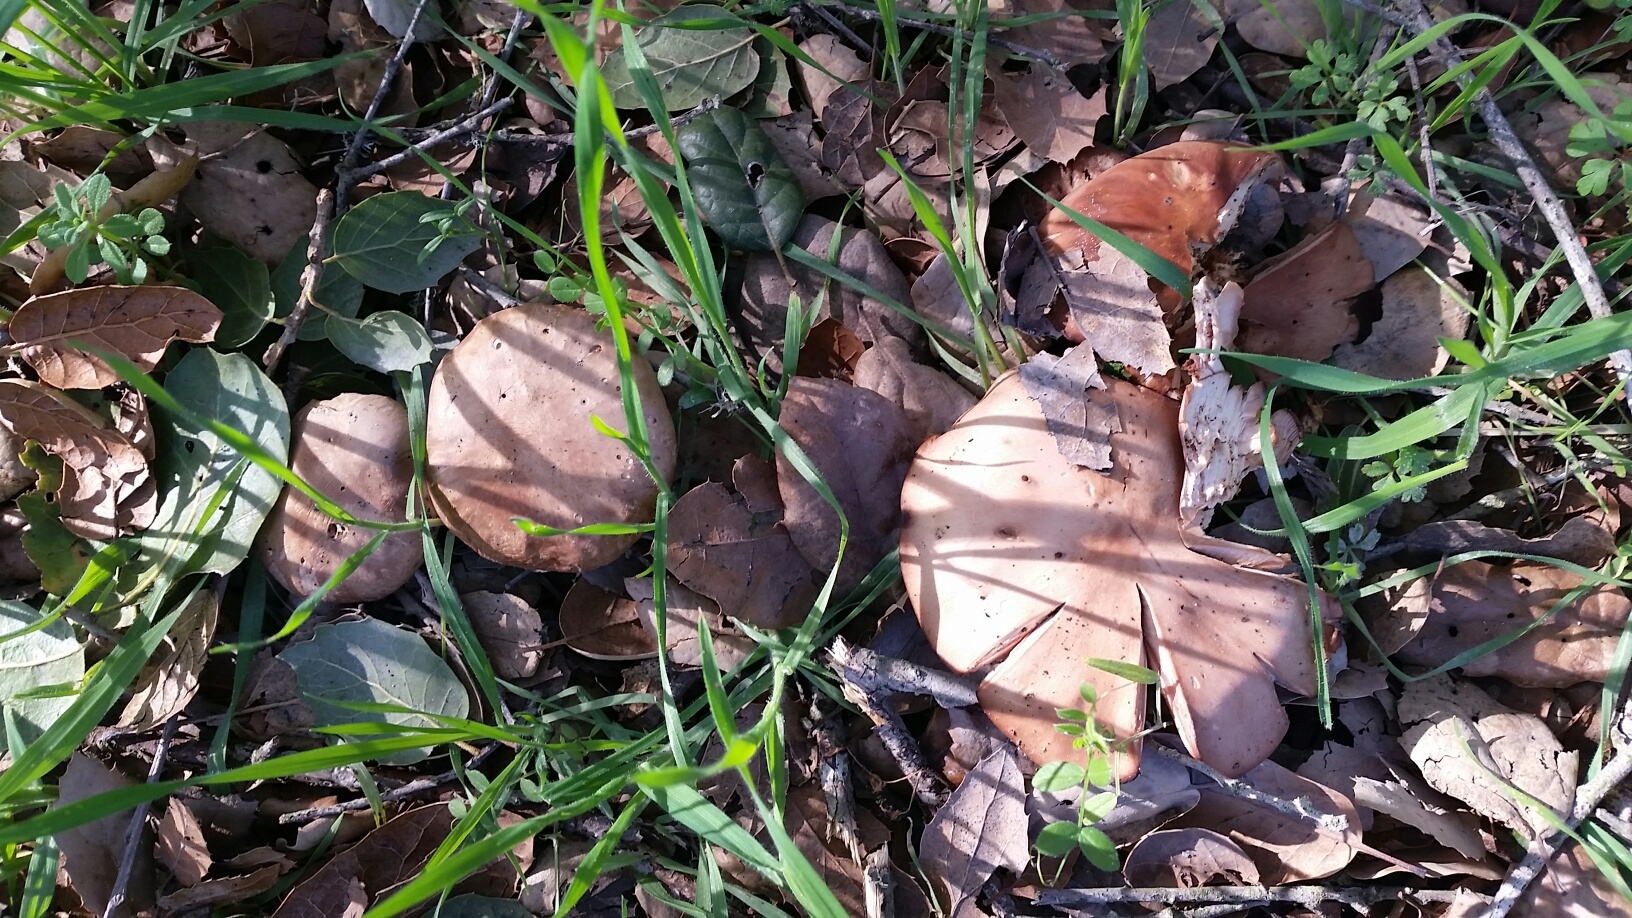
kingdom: Fungi
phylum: Basidiomycota
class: Agaricomycetes
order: Agaricales
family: Tricholomataceae
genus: Collybia
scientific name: Collybia
